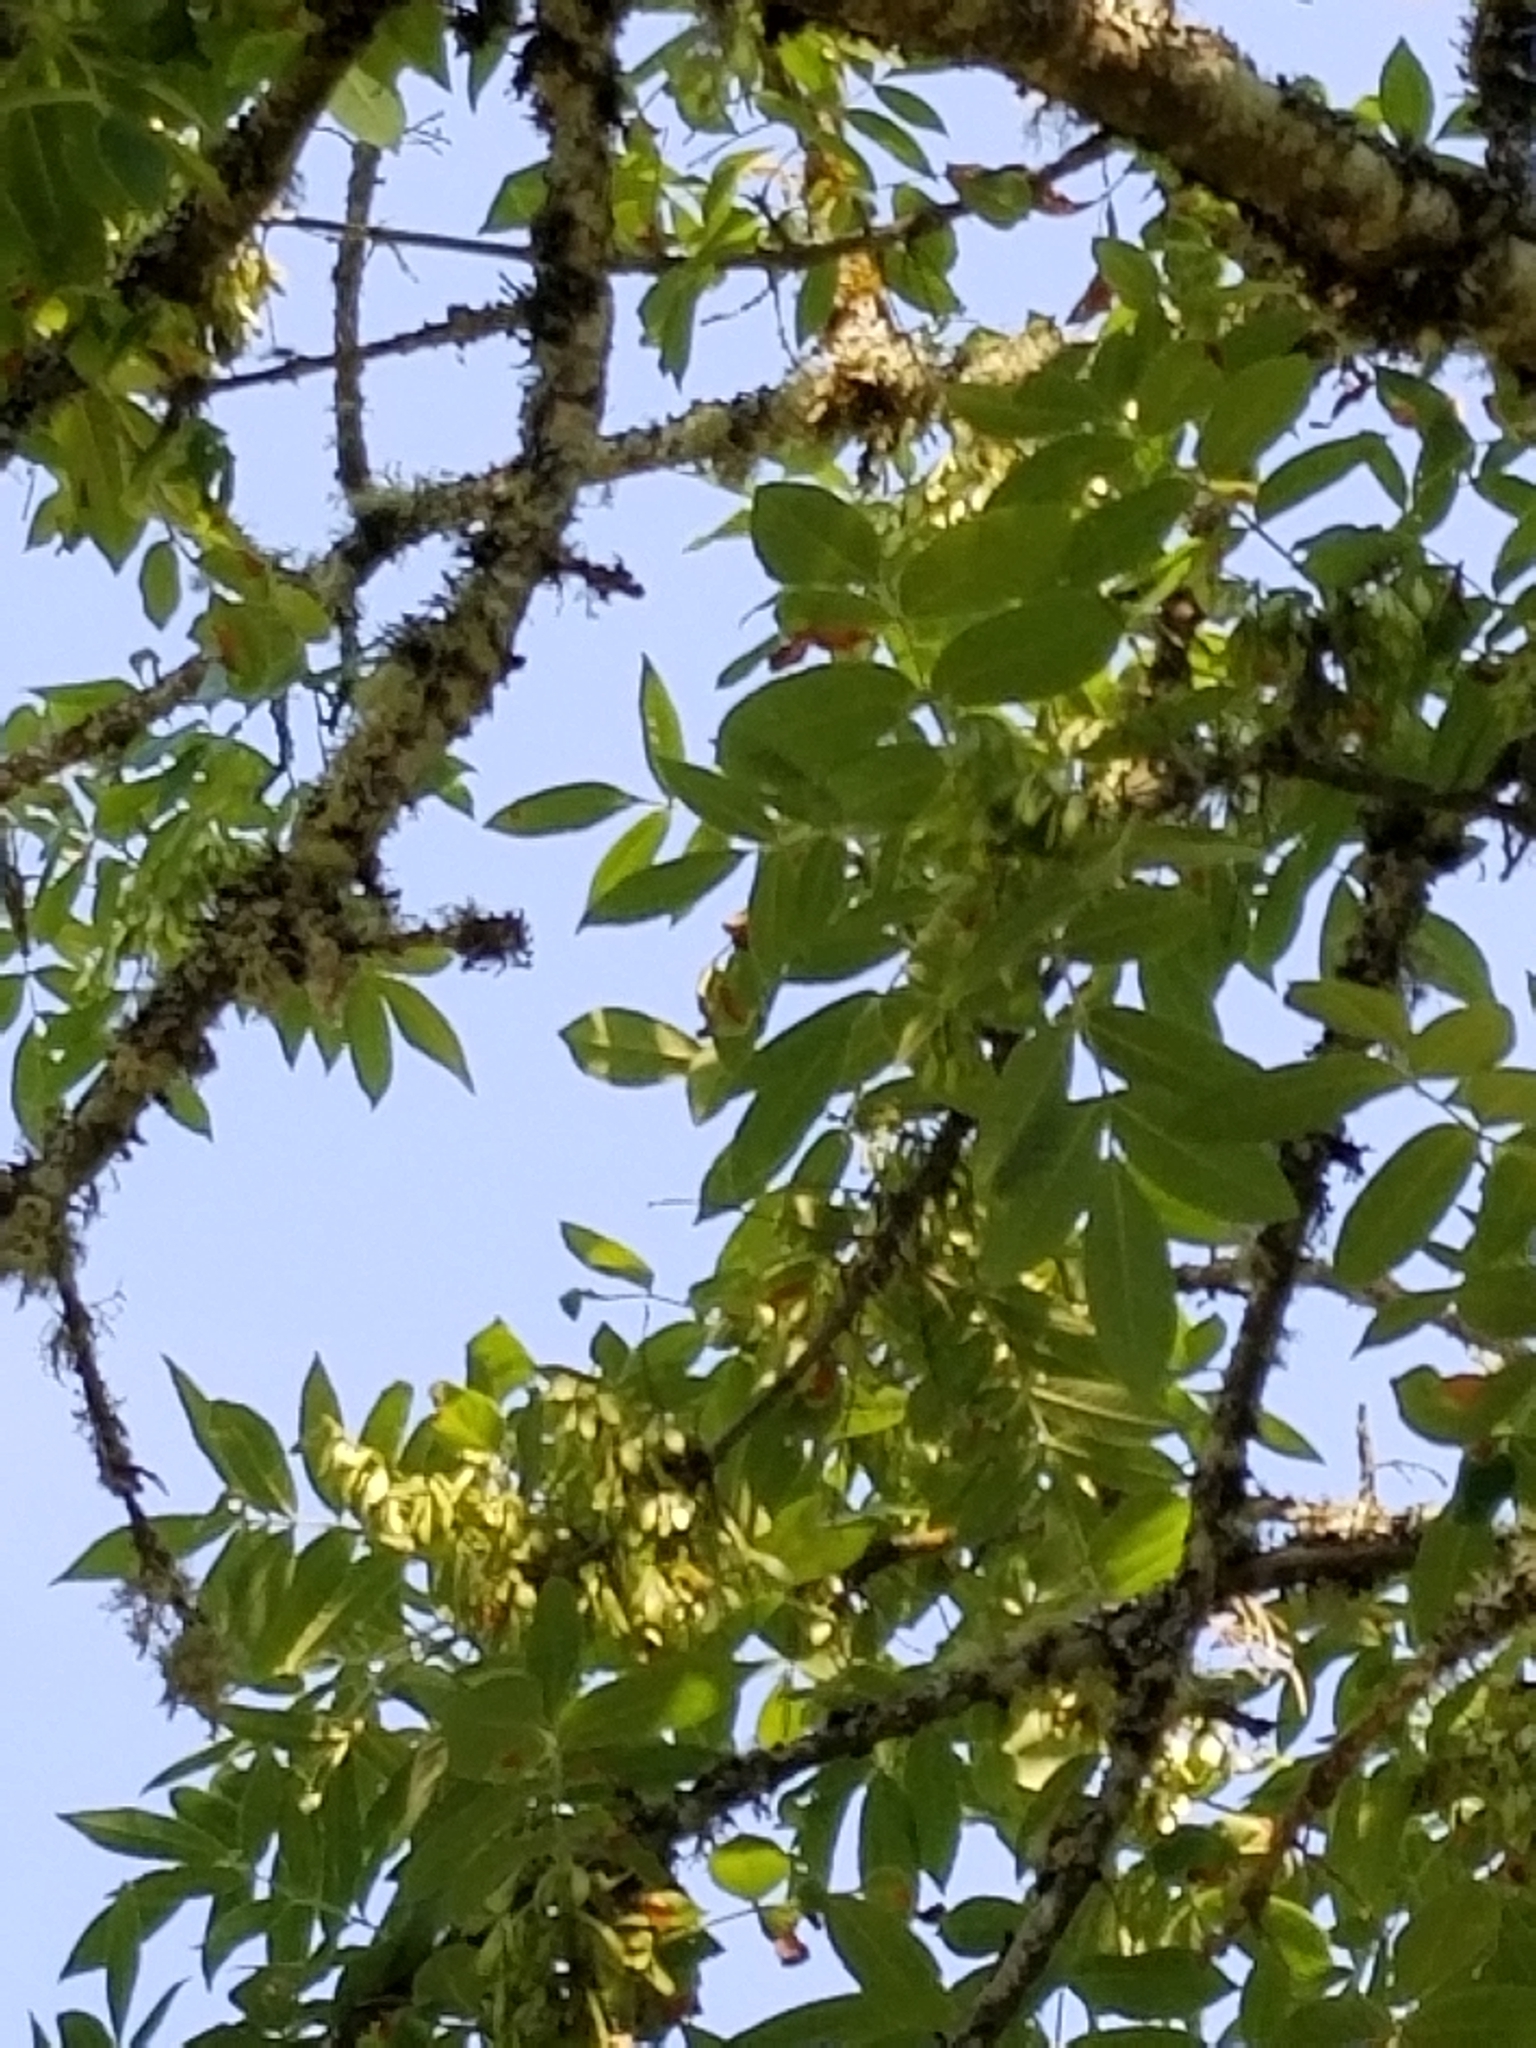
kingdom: Plantae
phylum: Tracheophyta
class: Magnoliopsida
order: Lamiales
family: Oleaceae
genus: Fraxinus
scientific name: Fraxinus latifolia
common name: Oregon ash
